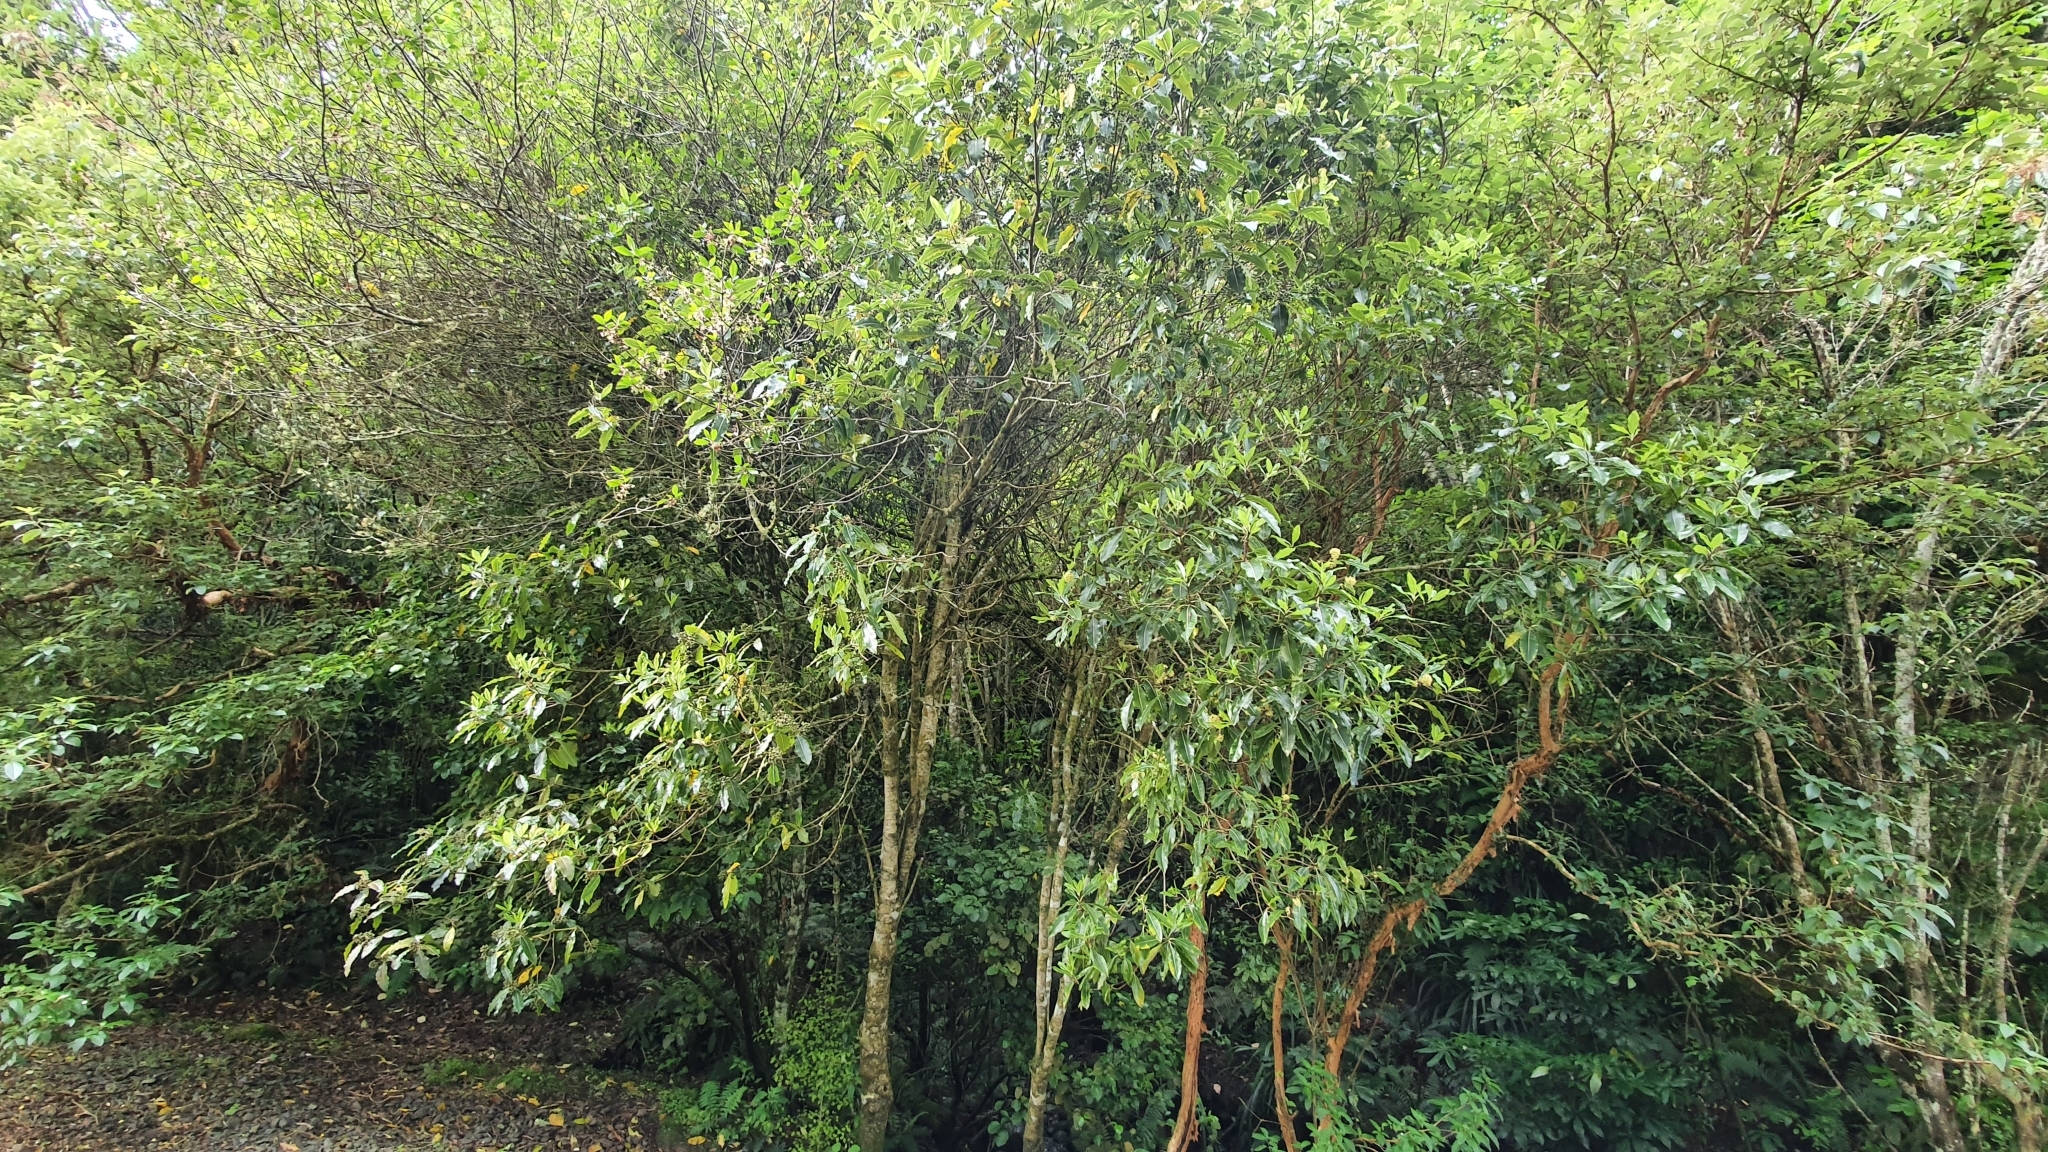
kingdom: Plantae
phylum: Tracheophyta
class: Magnoliopsida
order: Apiales
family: Pittosporaceae
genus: Pittosporum
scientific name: Pittosporum eugenioides
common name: Lemonwood
